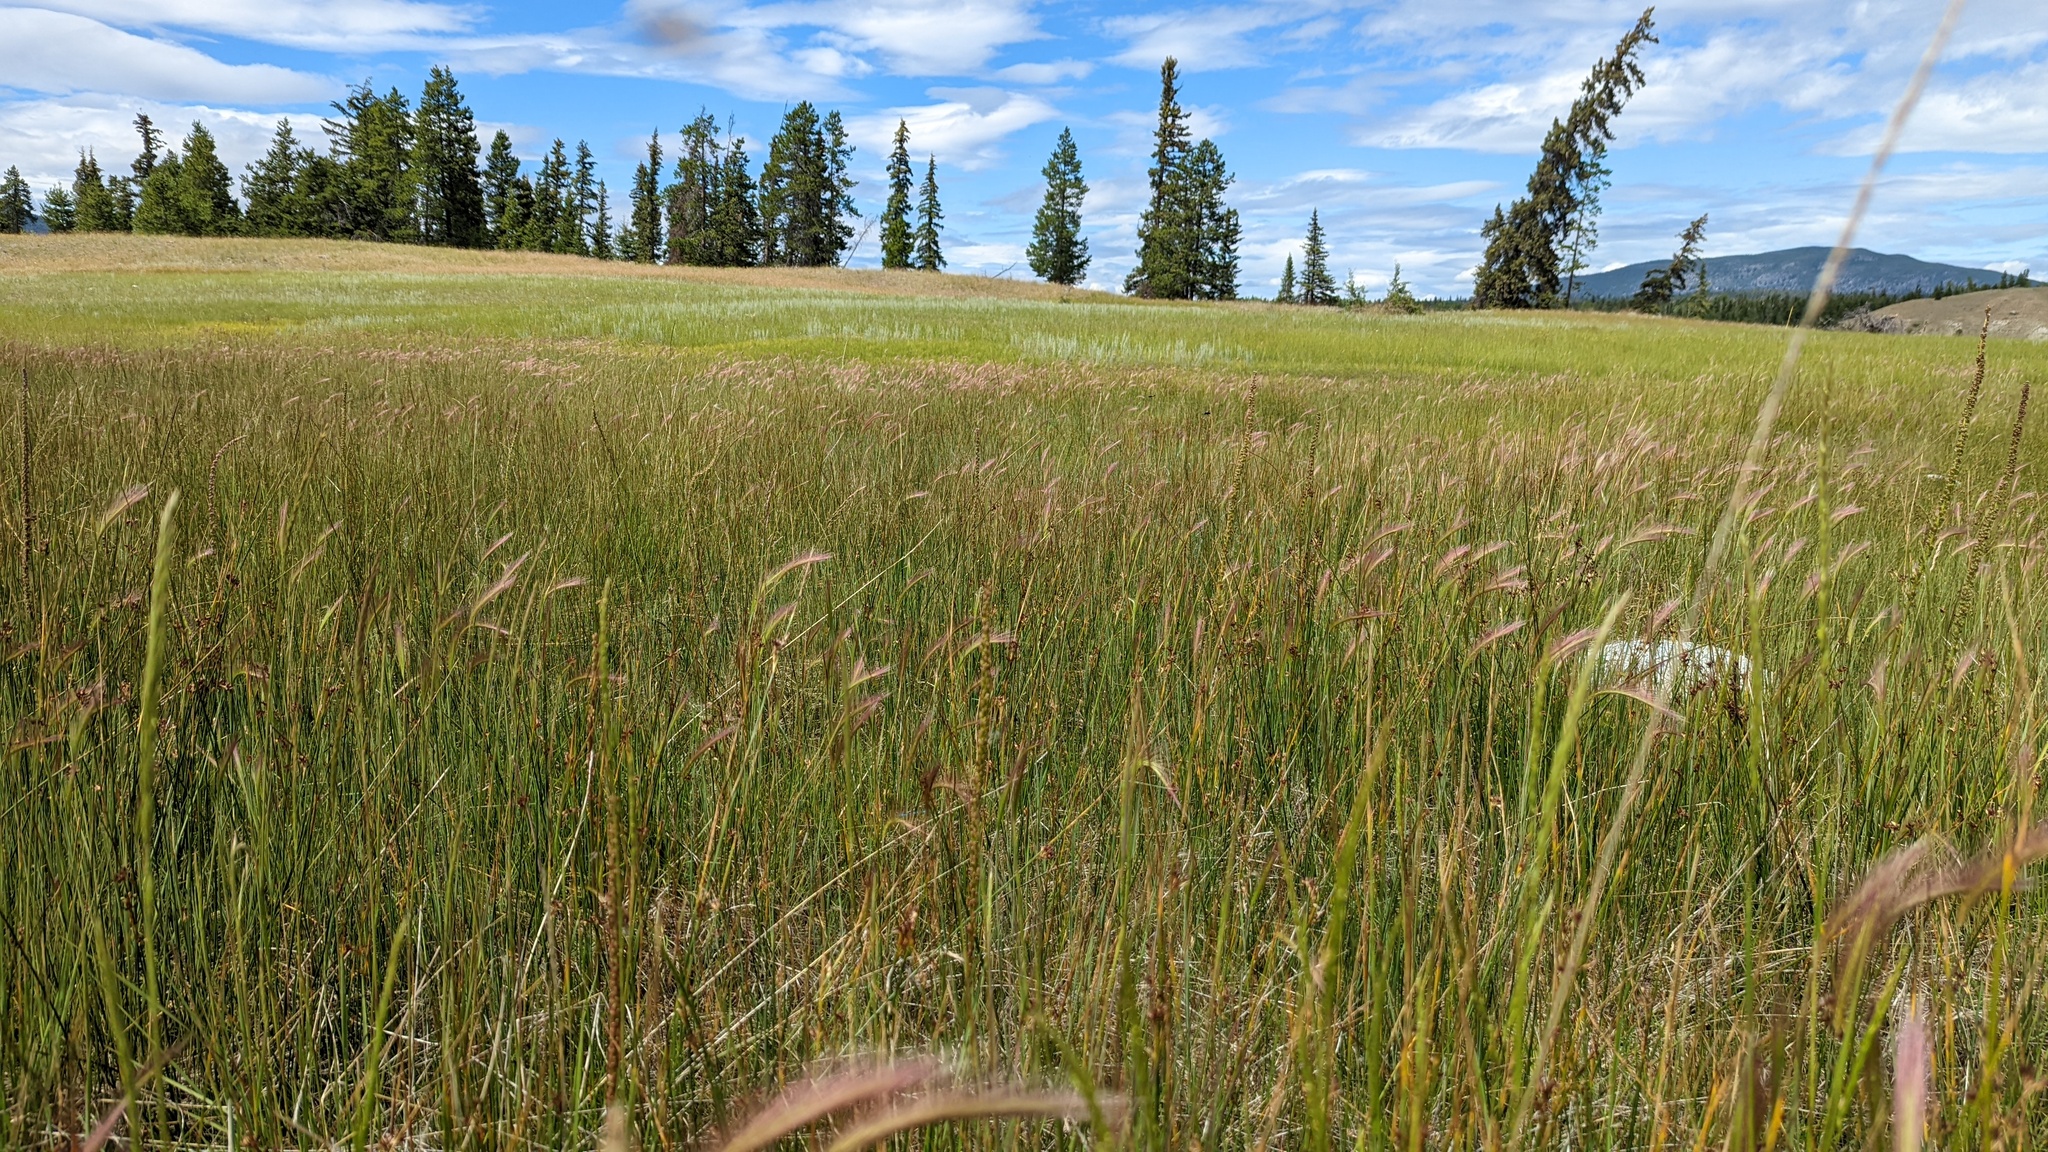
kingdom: Plantae
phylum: Tracheophyta
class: Liliopsida
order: Poales
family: Poaceae
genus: Hordeum
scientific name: Hordeum jubatum
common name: Foxtail barley
